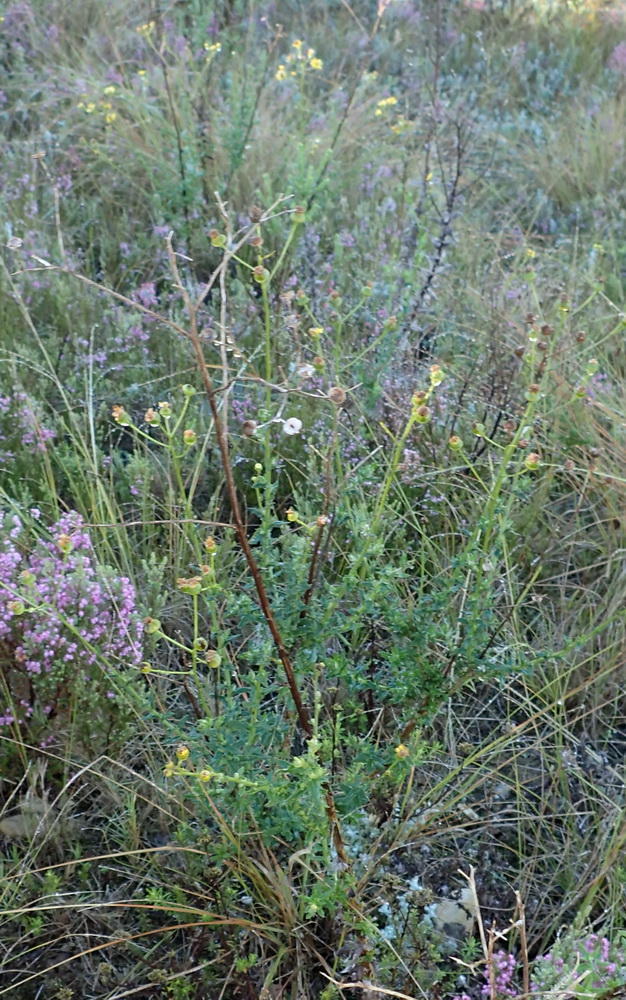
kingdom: Plantae
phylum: Tracheophyta
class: Magnoliopsida
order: Asterales
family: Asteraceae
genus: Senecio
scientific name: Senecio ilicifolius
